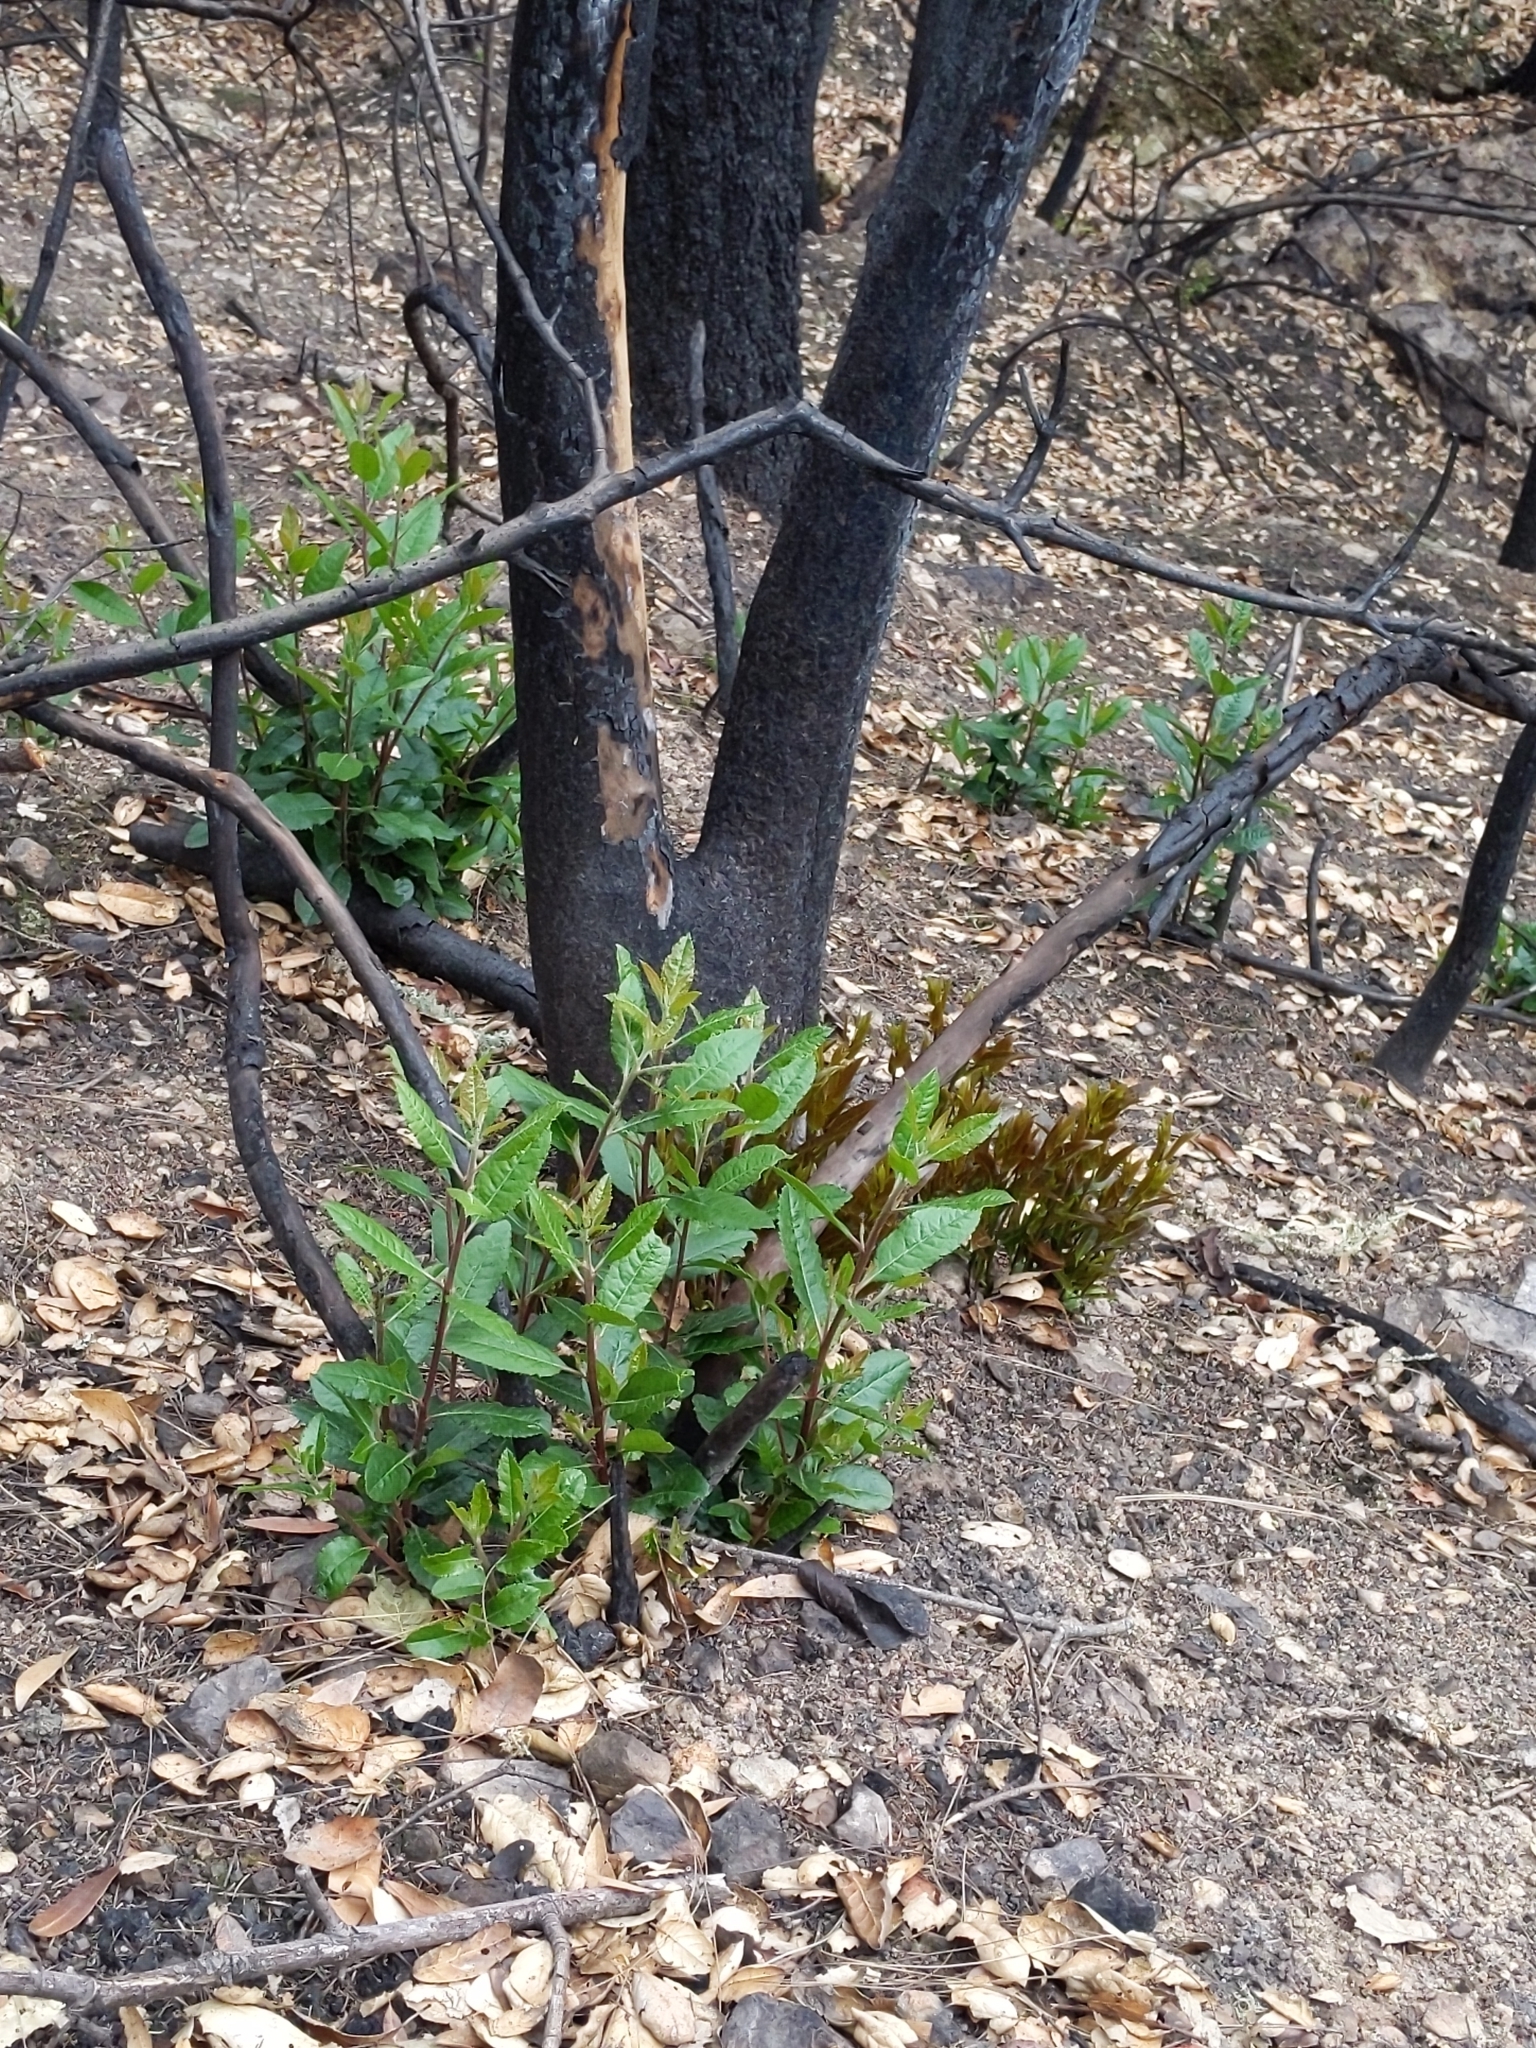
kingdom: Plantae
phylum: Tracheophyta
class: Magnoliopsida
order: Ericales
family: Ericaceae
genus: Arbutus
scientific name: Arbutus menziesii
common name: Pacific madrone
